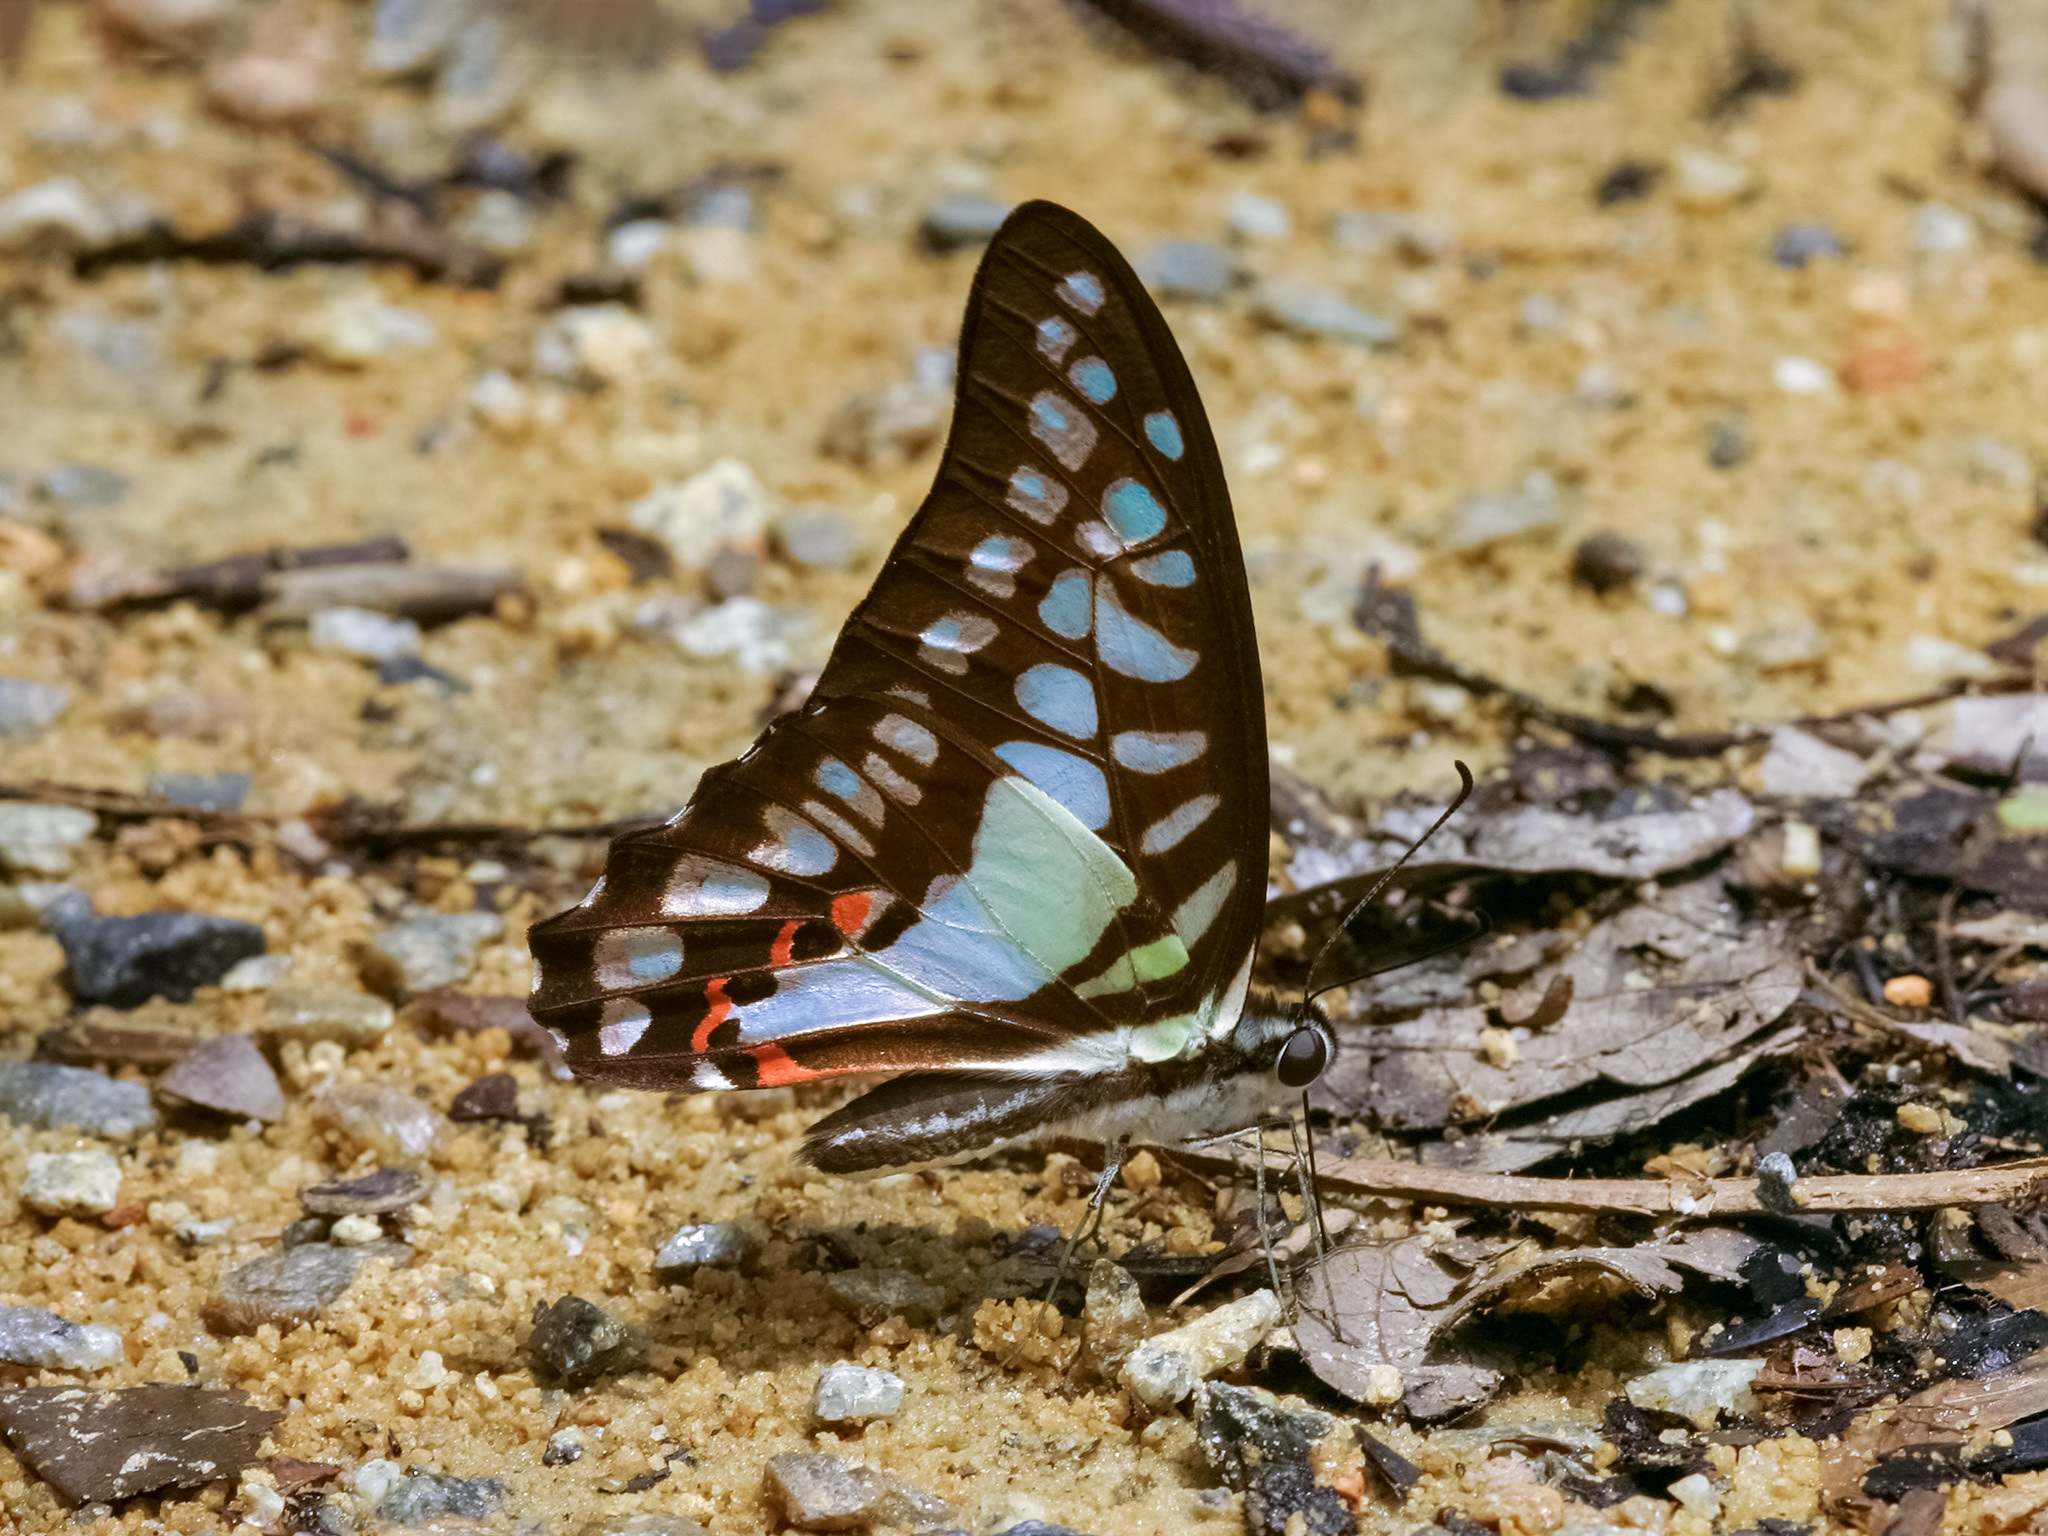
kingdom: Animalia
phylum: Arthropoda
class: Insecta
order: Lepidoptera
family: Papilionidae
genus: Graphium
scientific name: Graphium evemon
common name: Lesser jay
